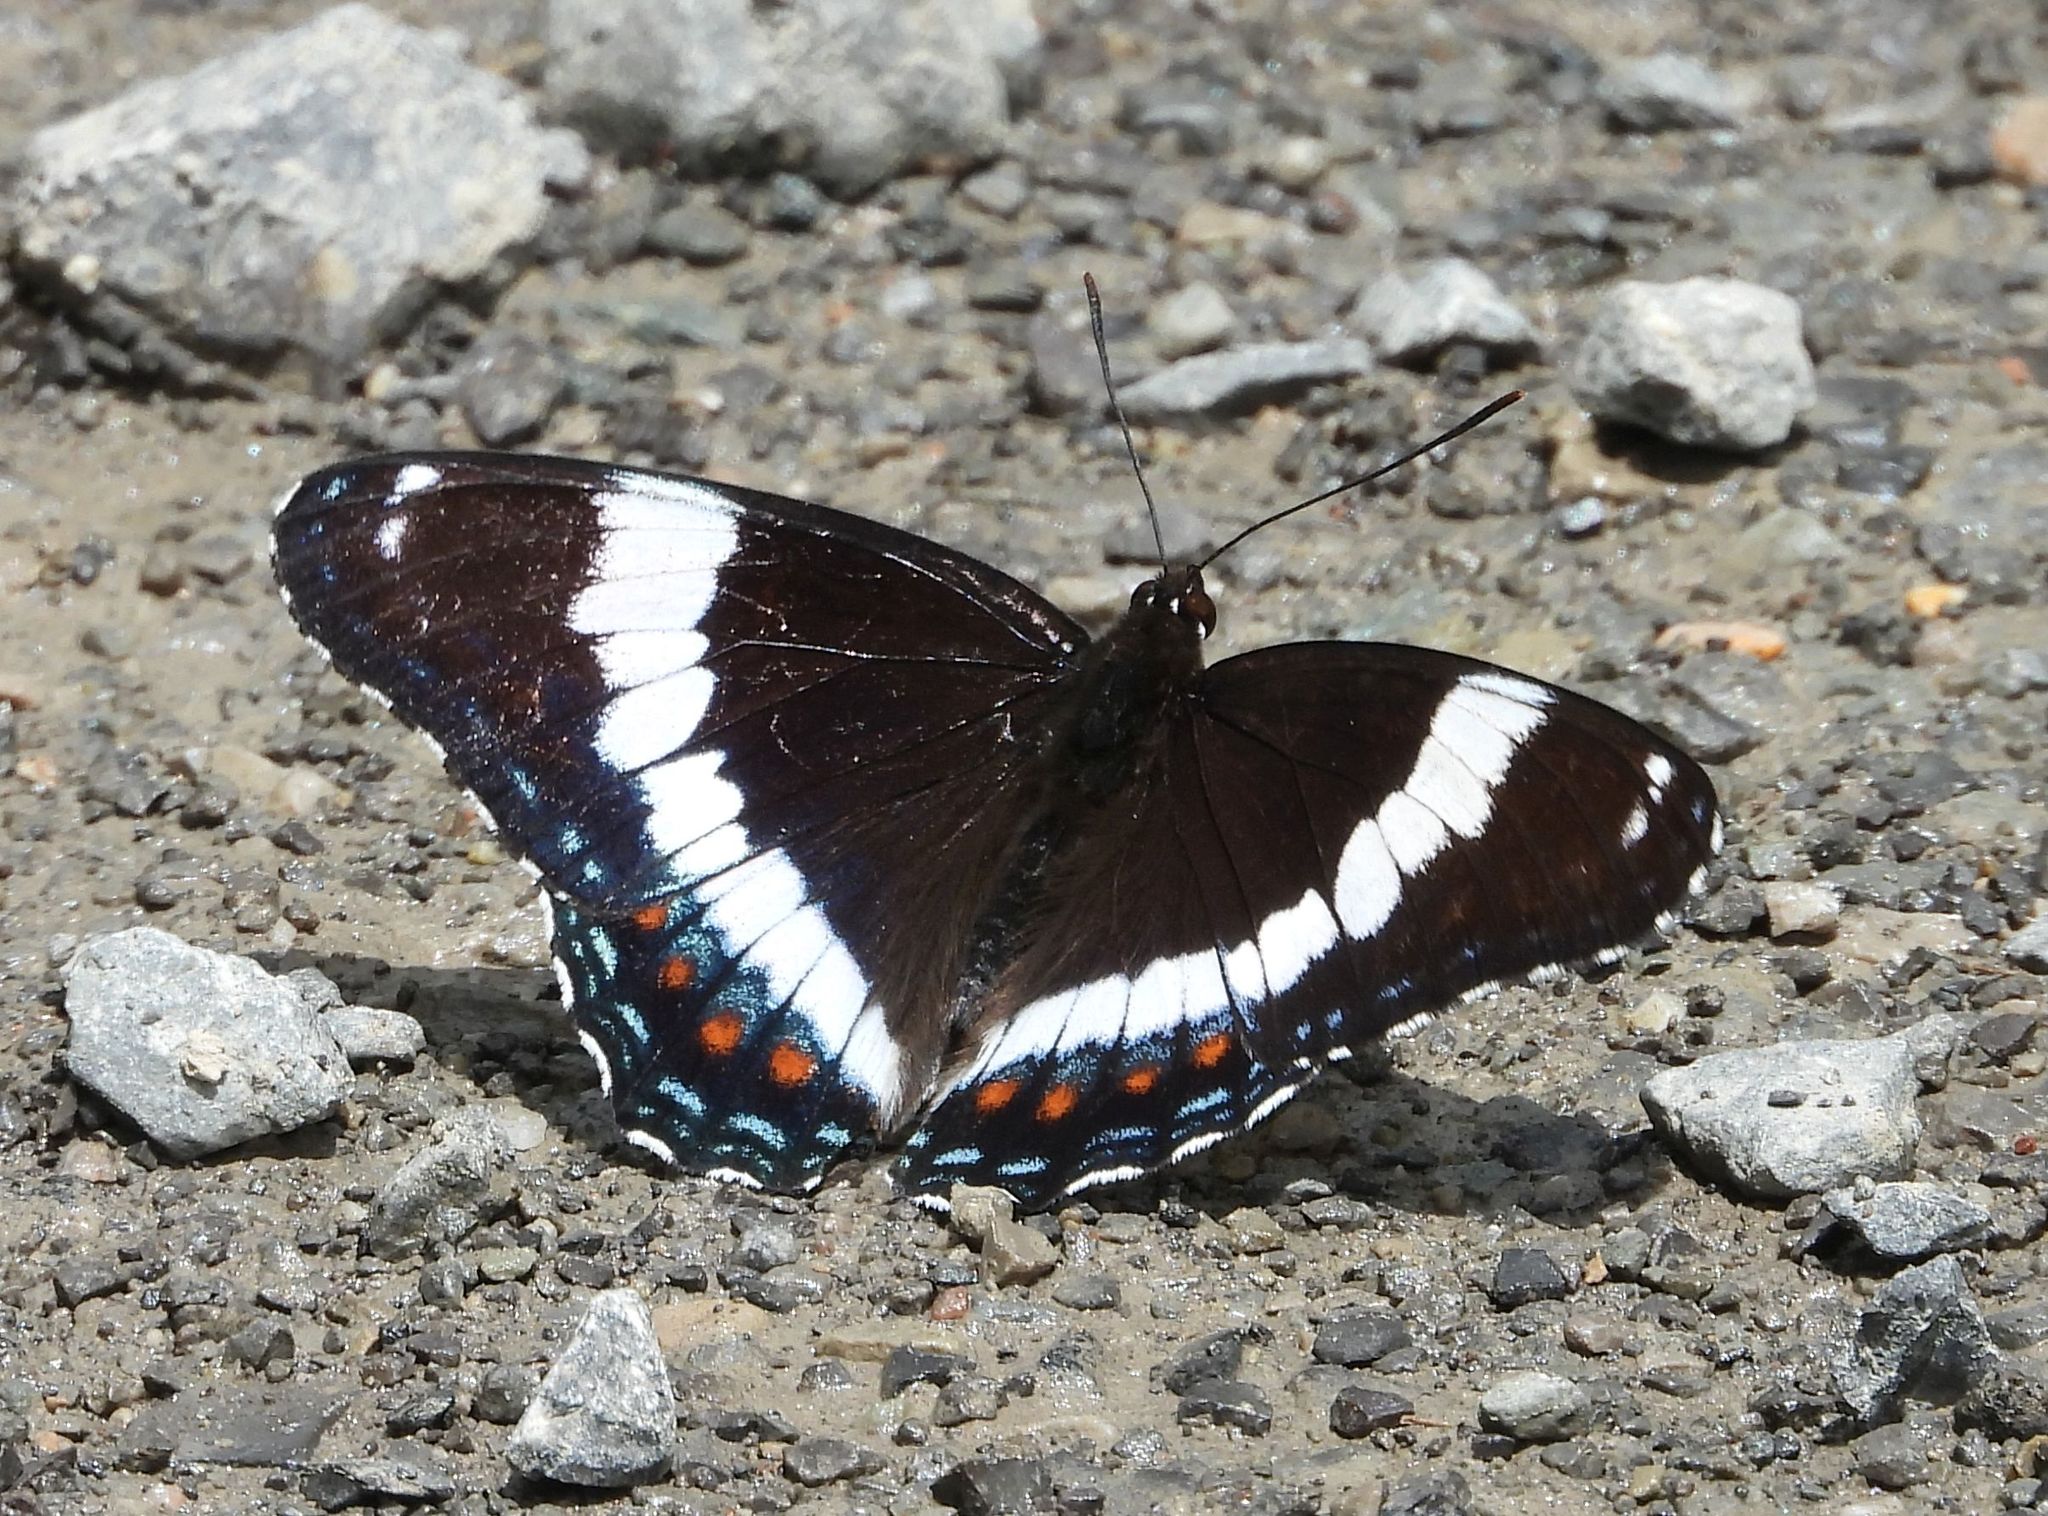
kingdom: Animalia
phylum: Arthropoda
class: Insecta
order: Lepidoptera
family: Nymphalidae
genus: Limenitis
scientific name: Limenitis arthemis
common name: Red-spotted admiral
